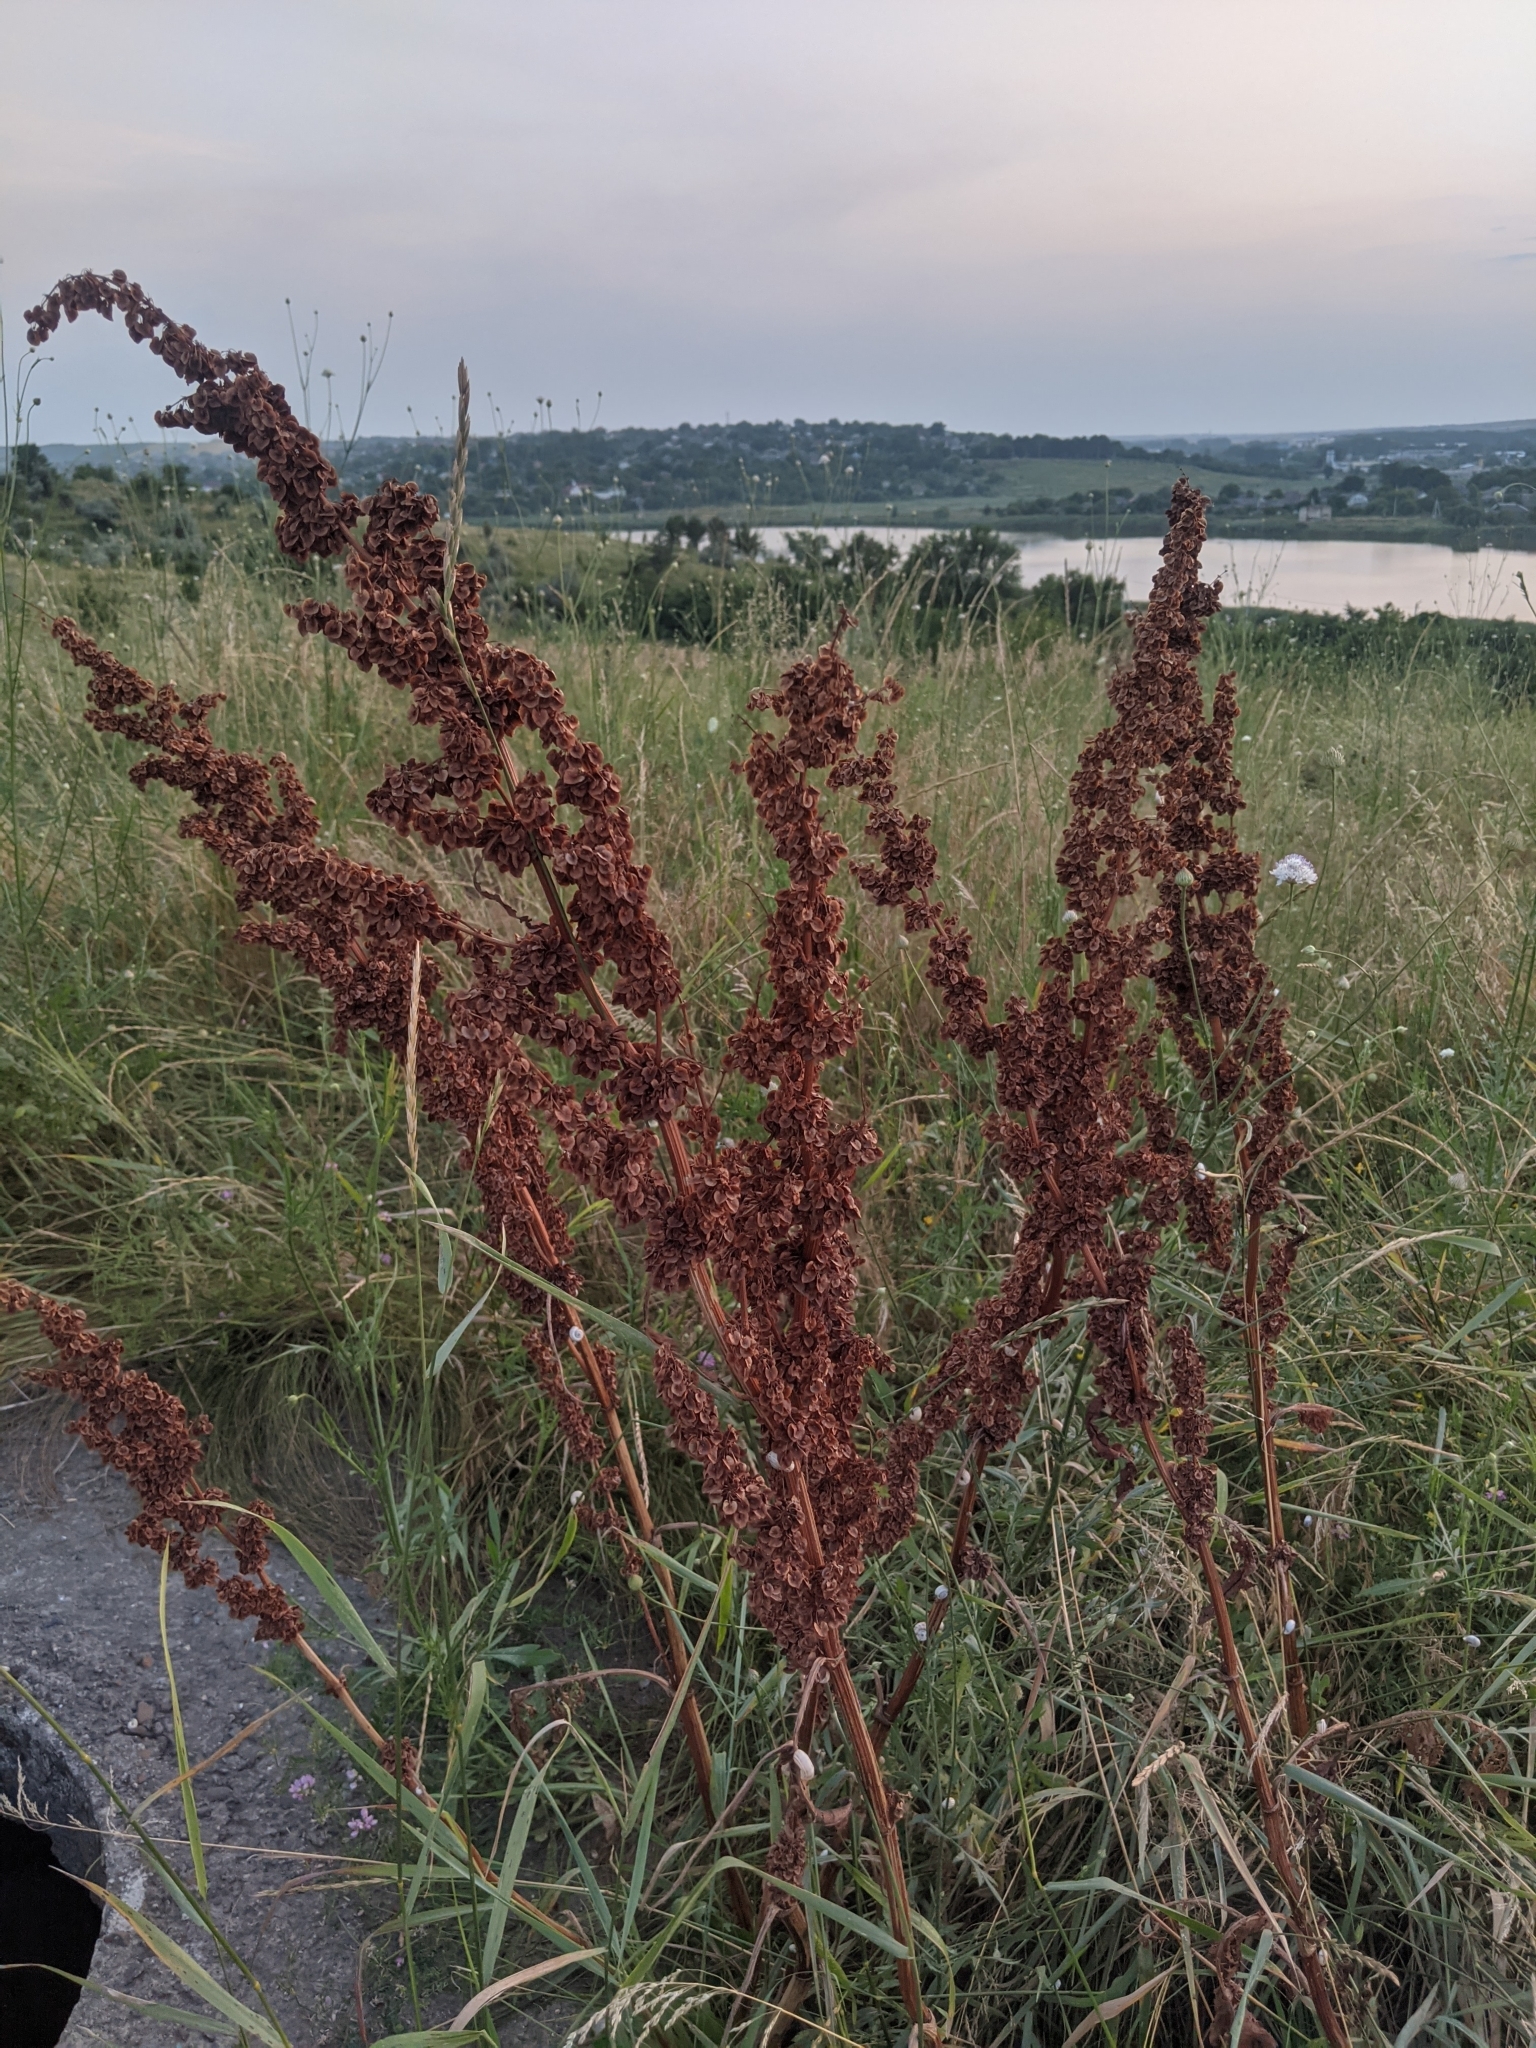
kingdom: Plantae
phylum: Tracheophyta
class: Magnoliopsida
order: Caryophyllales
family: Polygonaceae
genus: Rumex
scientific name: Rumex crispus
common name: Curled dock
